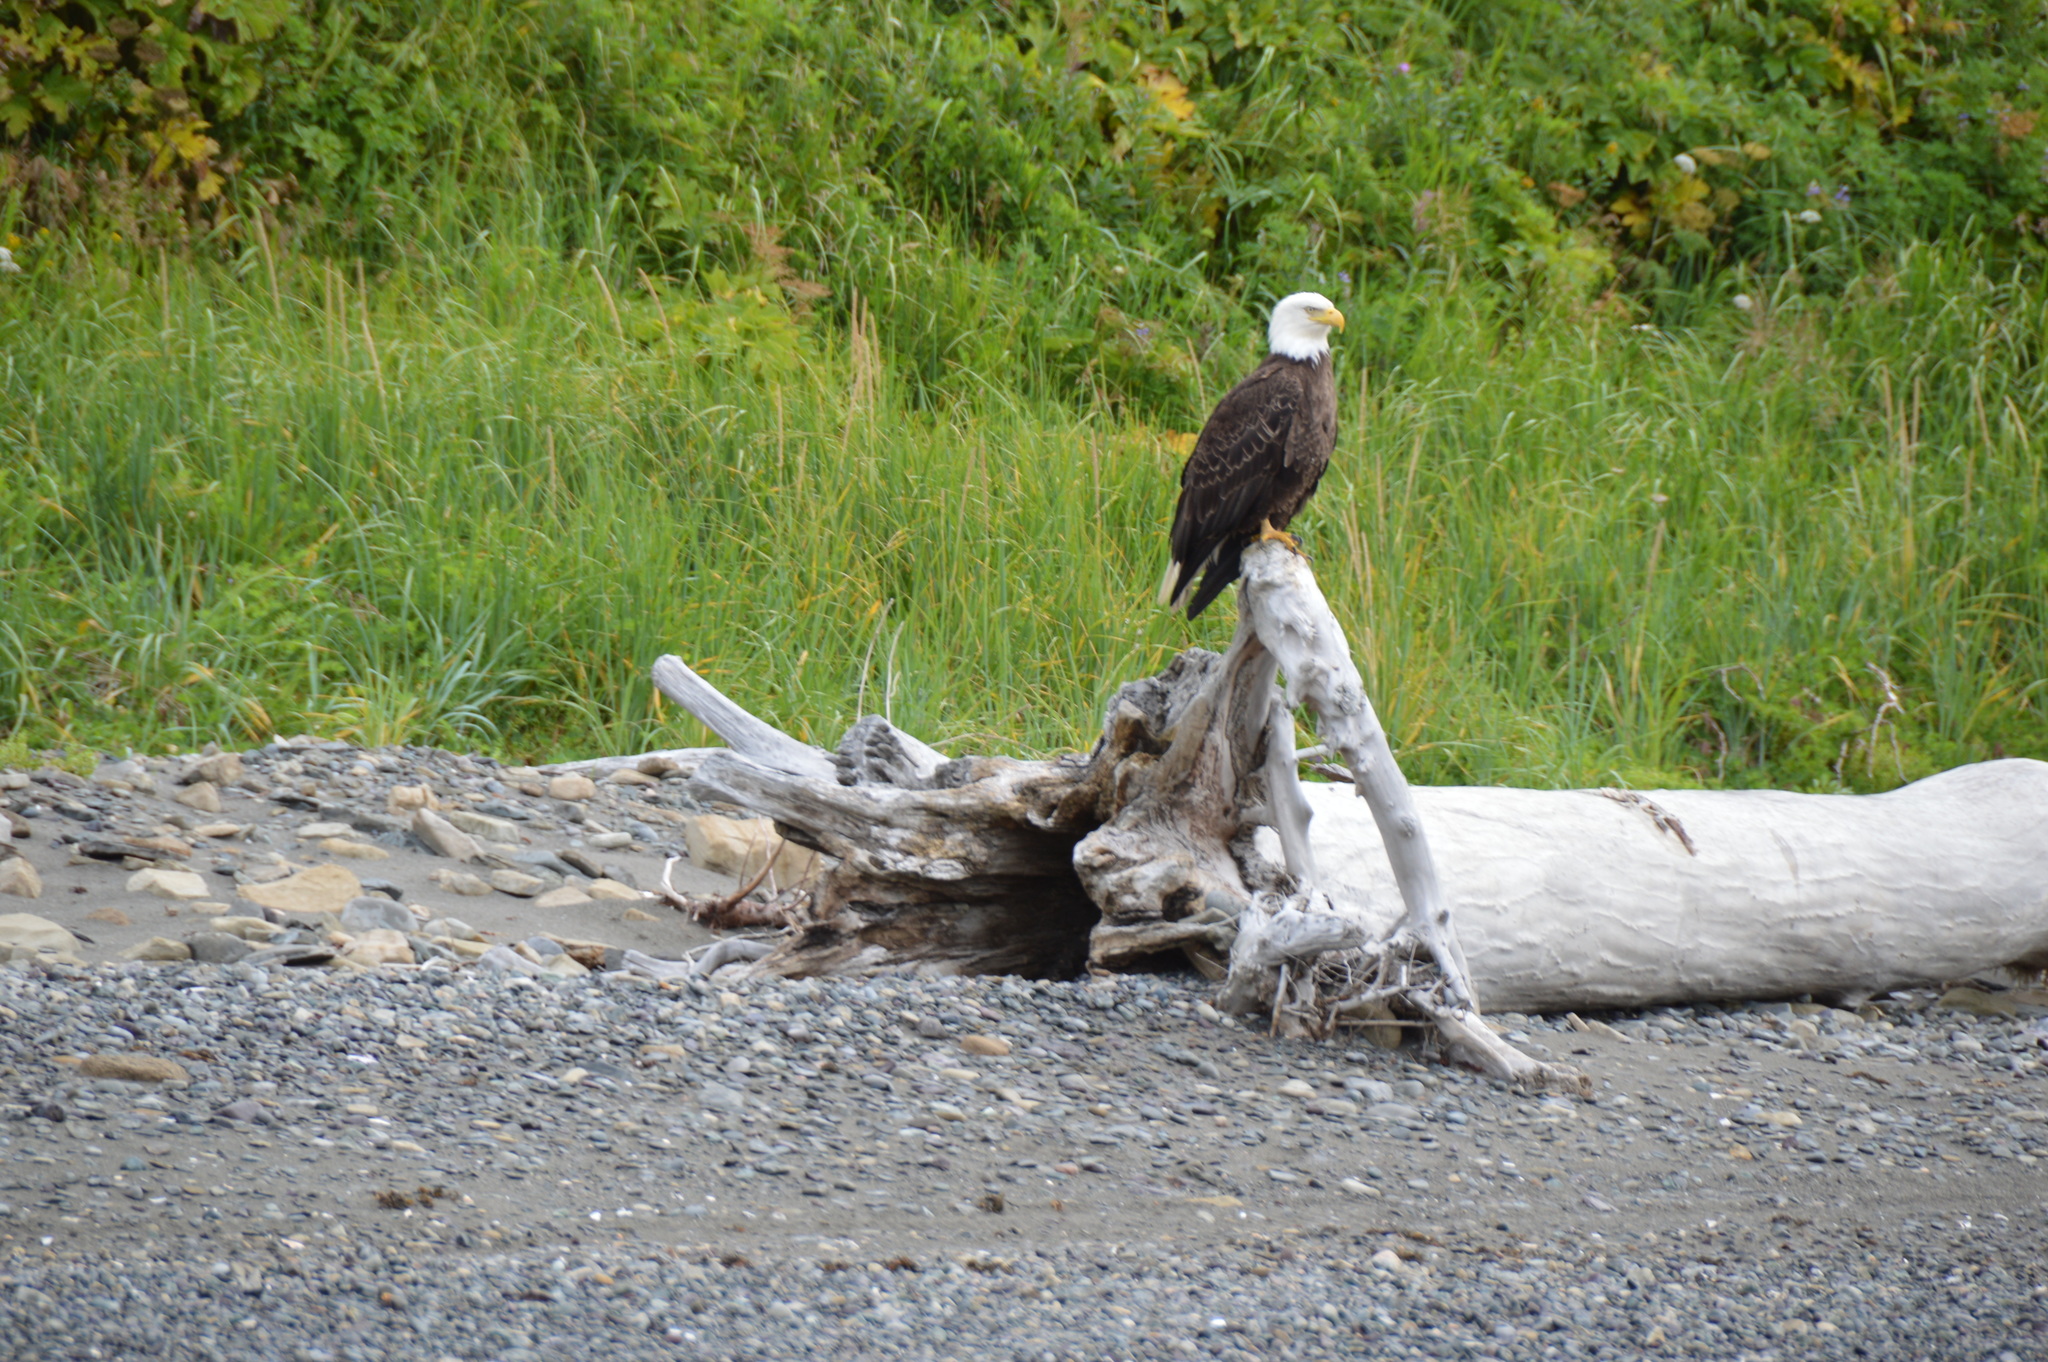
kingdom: Animalia
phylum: Chordata
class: Aves
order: Accipitriformes
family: Accipitridae
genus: Haliaeetus
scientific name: Haliaeetus leucocephalus
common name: Bald eagle
